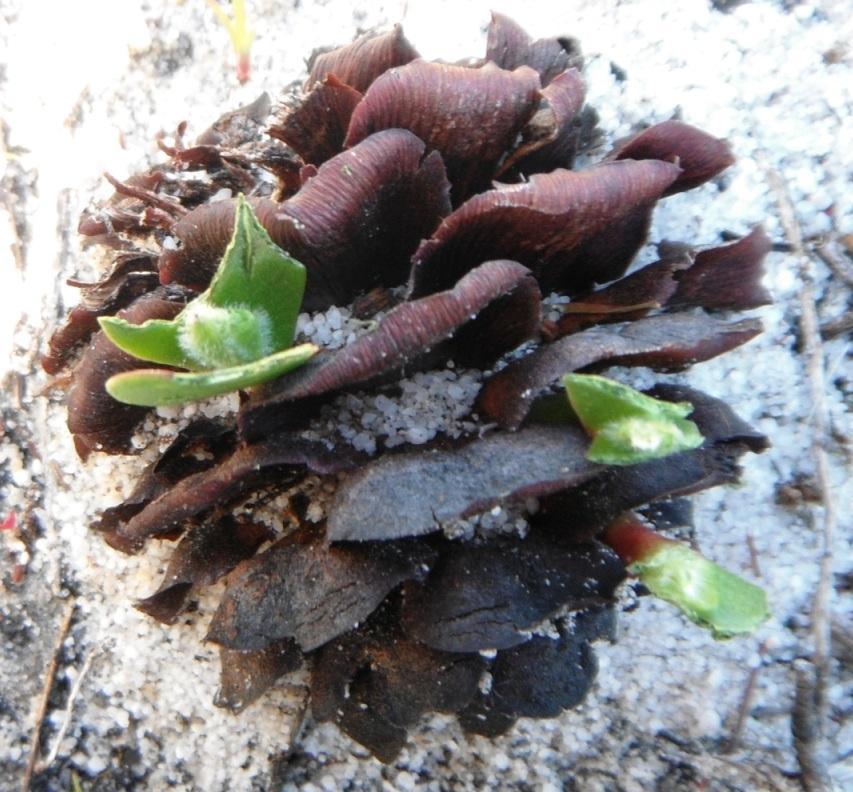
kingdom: Plantae
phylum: Tracheophyta
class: Magnoliopsida
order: Proteales
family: Proteaceae
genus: Leucadendron
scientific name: Leucadendron laureolum
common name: Golden sunshinebush
